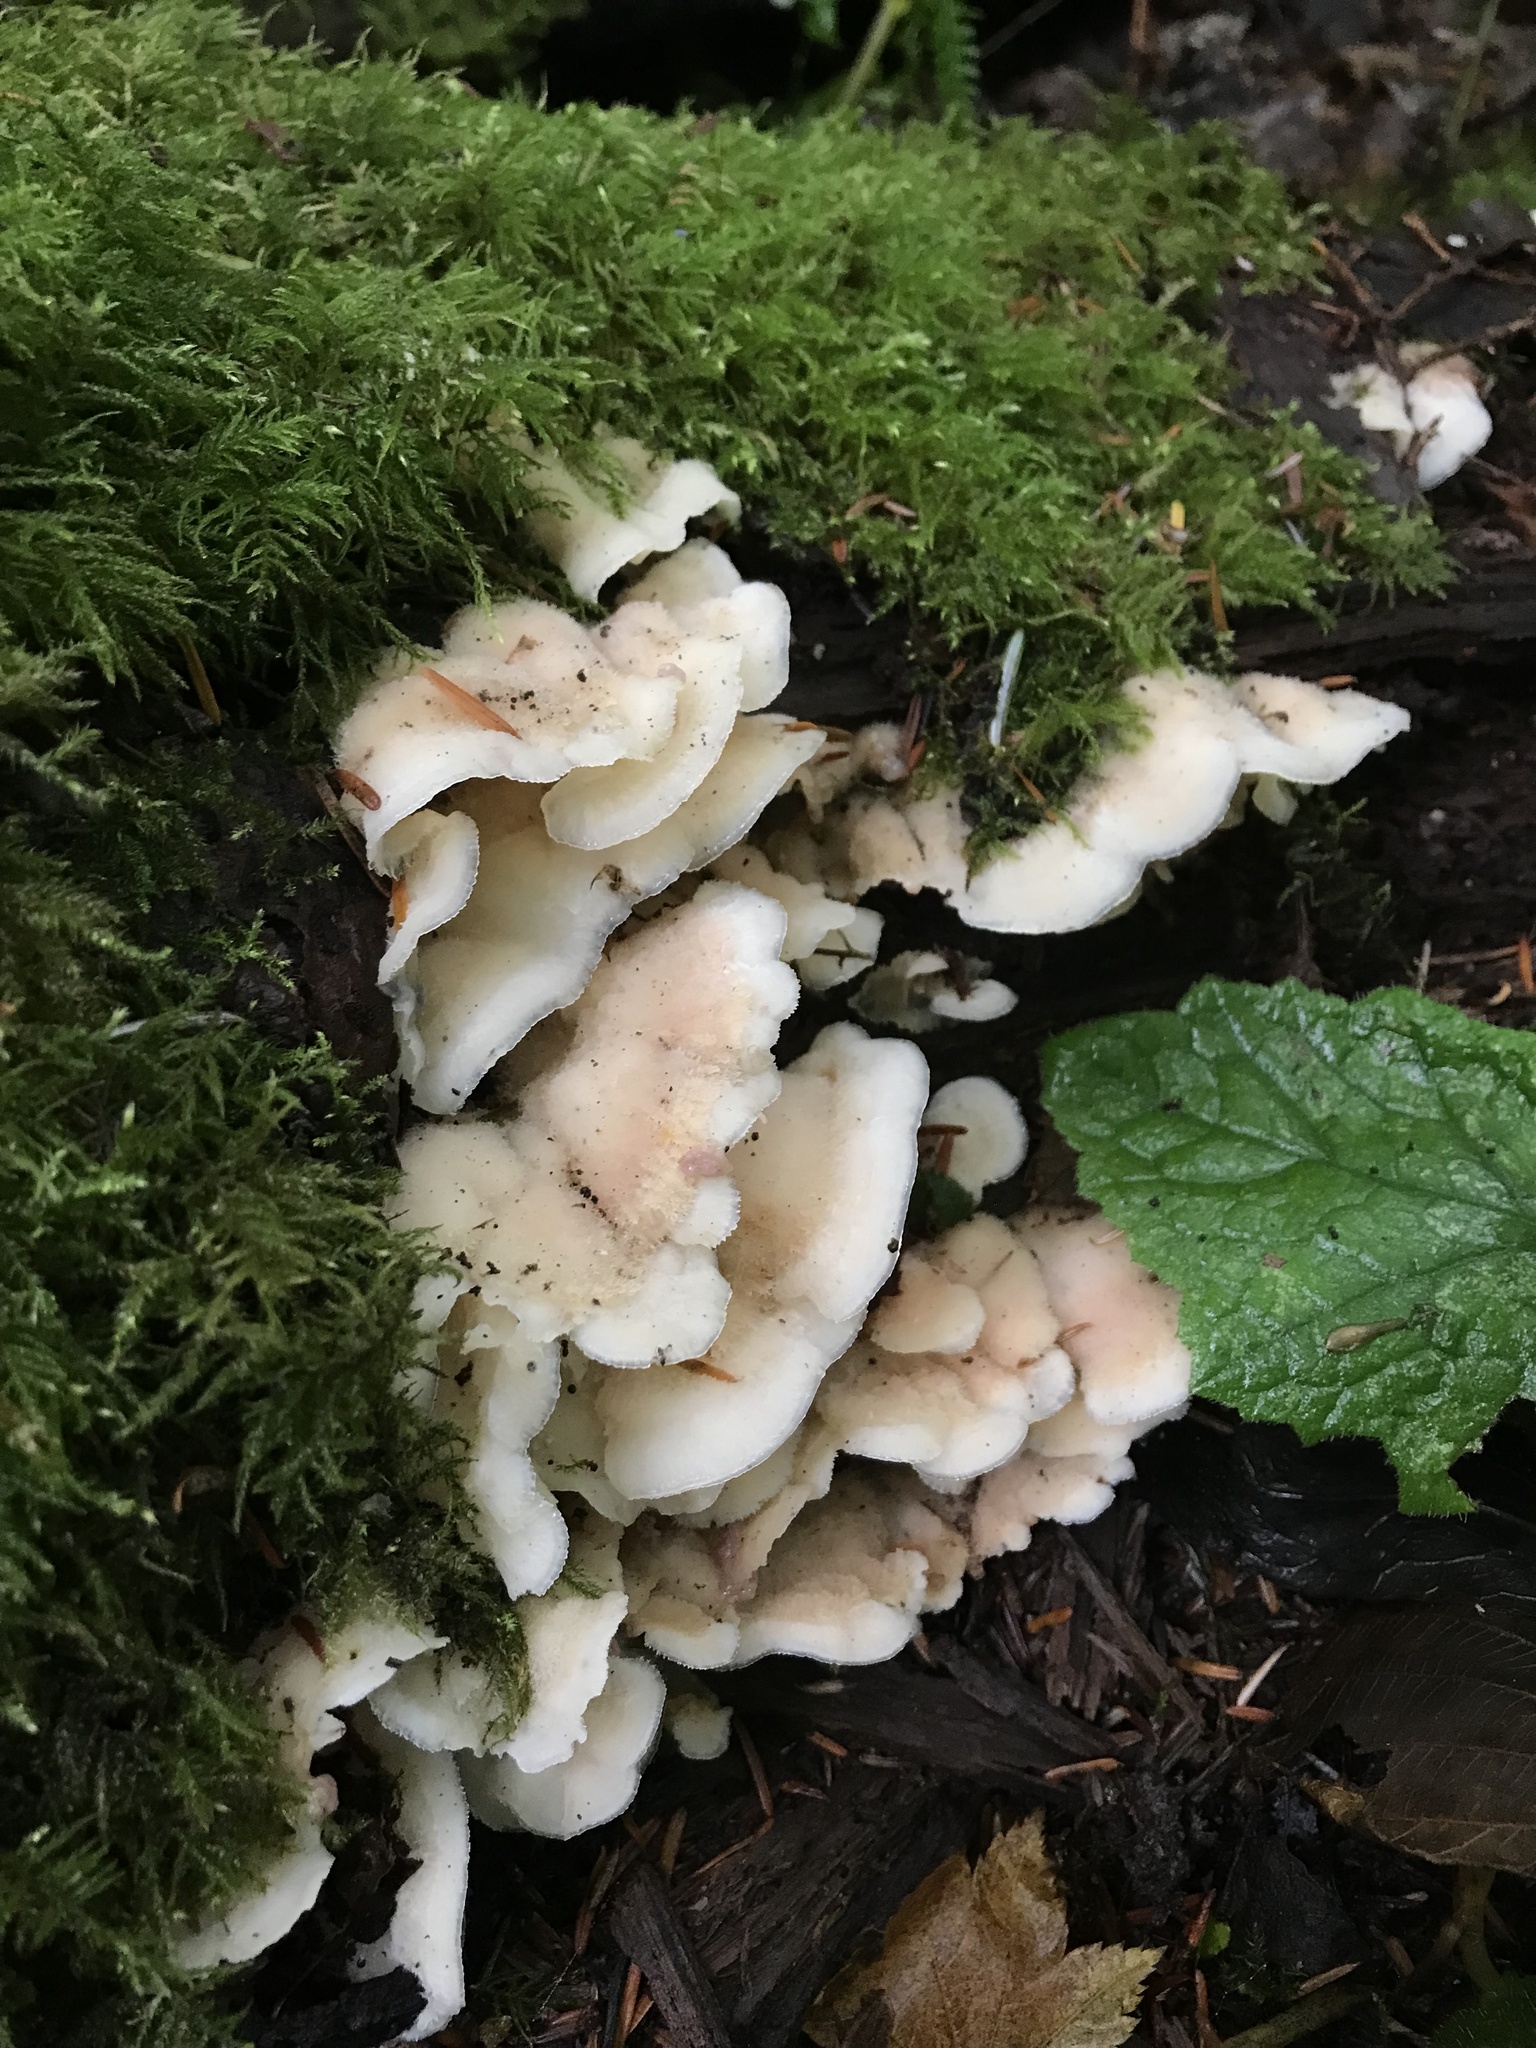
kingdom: Fungi
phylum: Basidiomycota
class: Agaricomycetes
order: Polyporales
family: Meruliaceae
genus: Phlebia
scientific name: Phlebia tremellosa
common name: Jelly rot
